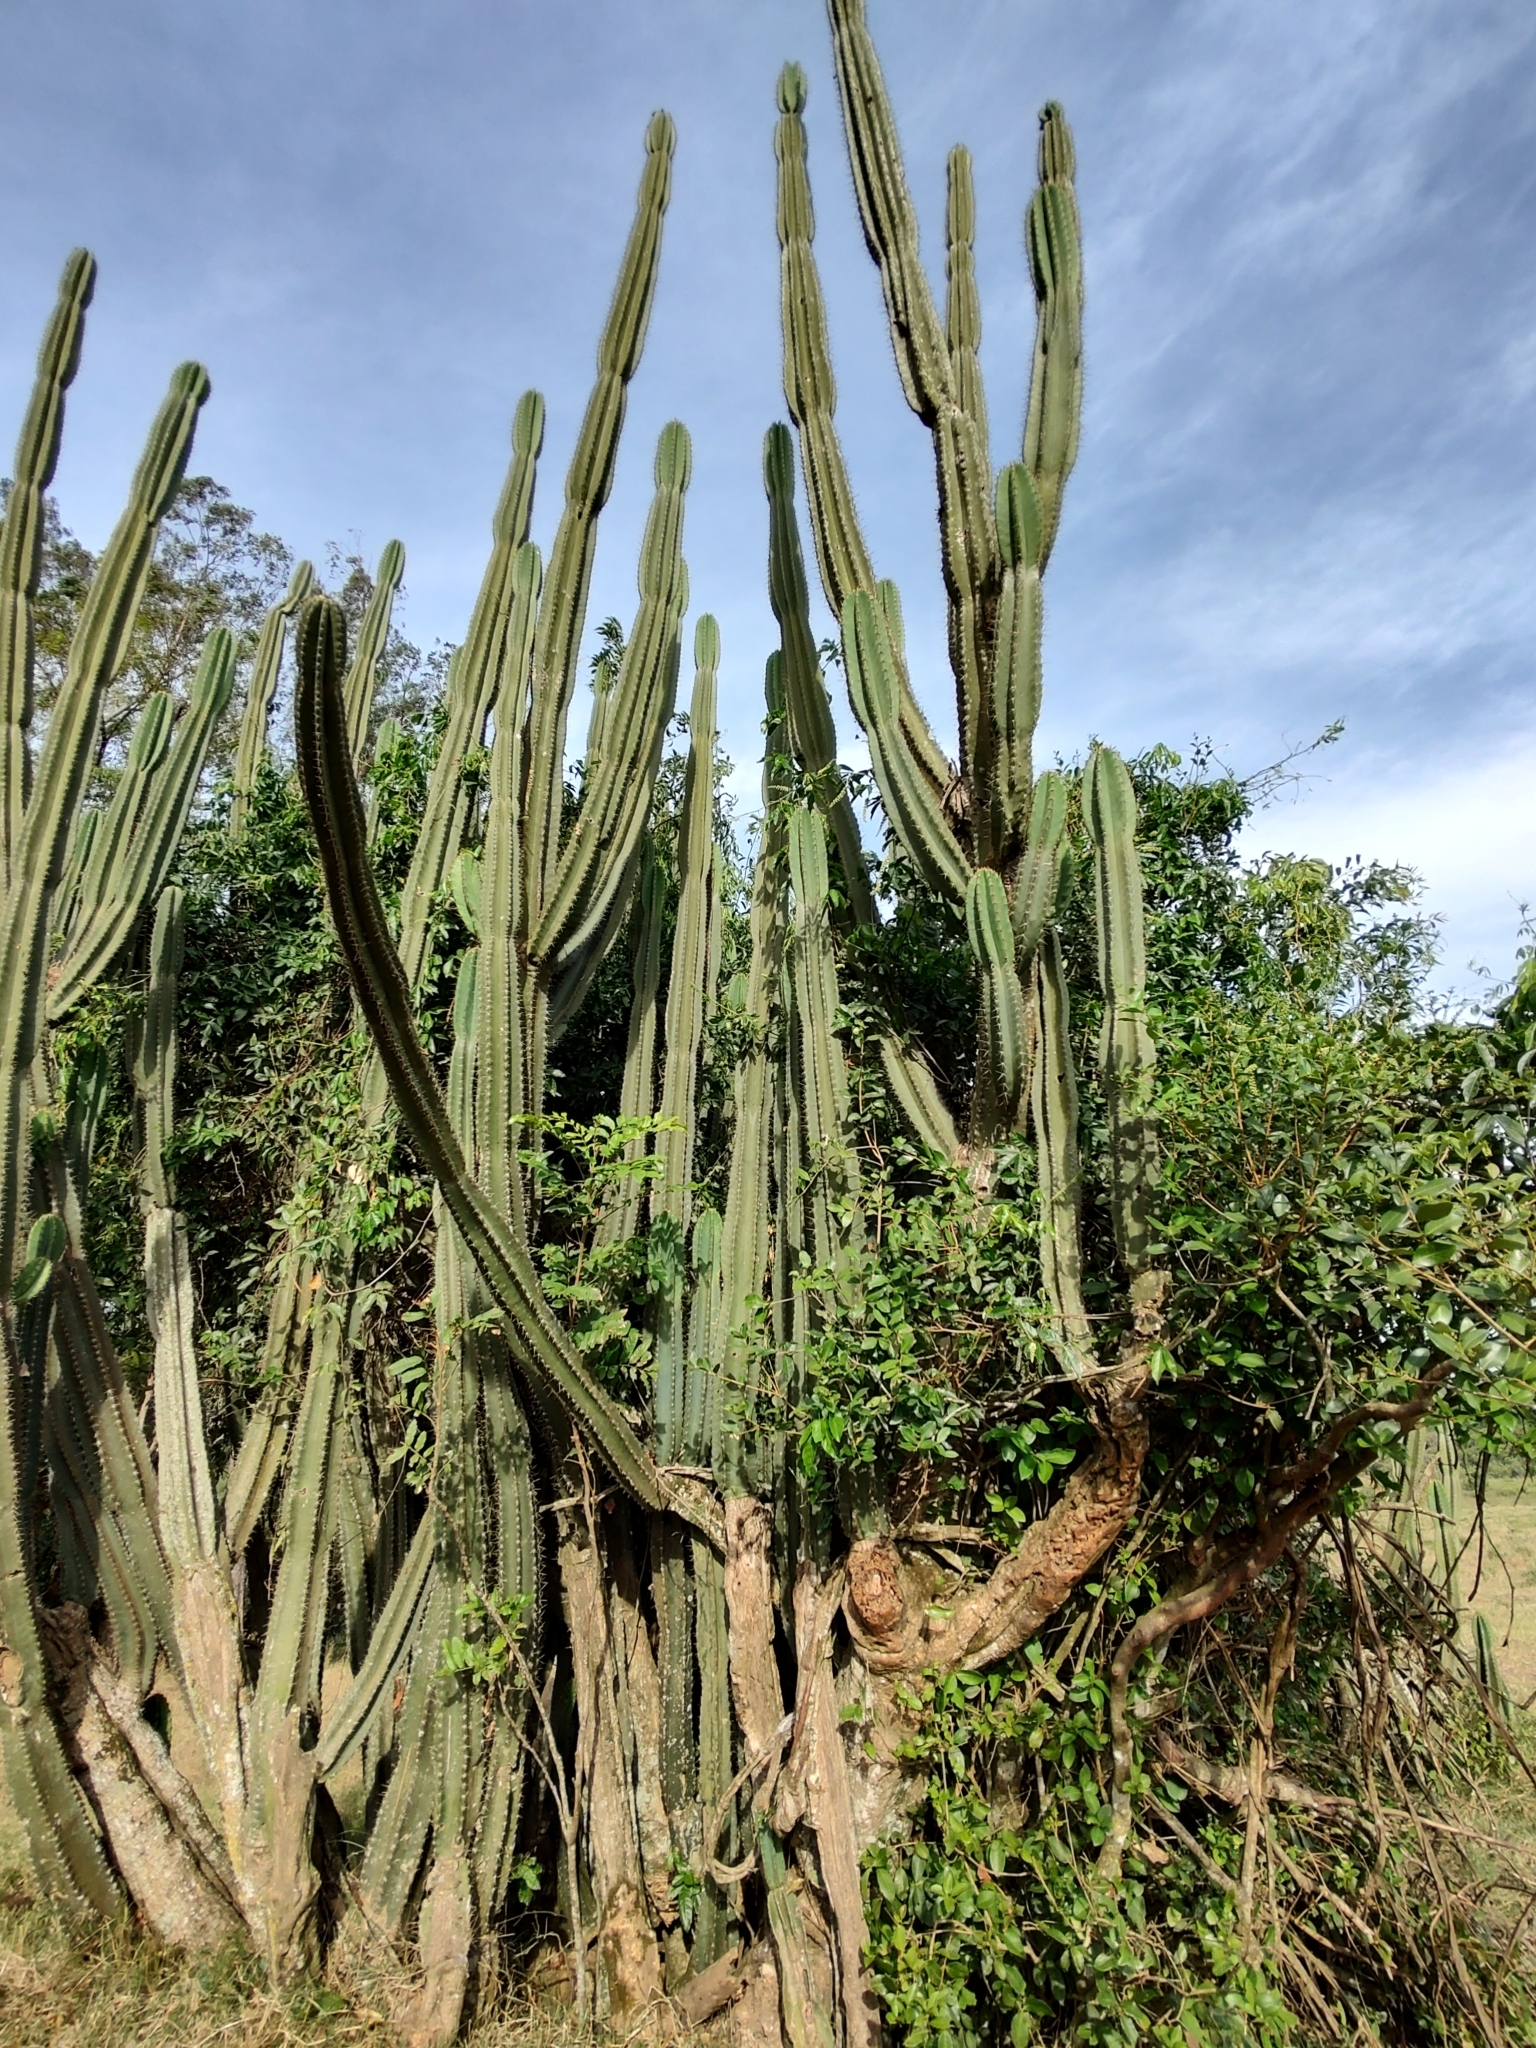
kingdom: Plantae
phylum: Tracheophyta
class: Magnoliopsida
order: Caryophyllales
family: Cactaceae
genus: Cereus
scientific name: Cereus hildmannianus
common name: Hedge cactus
